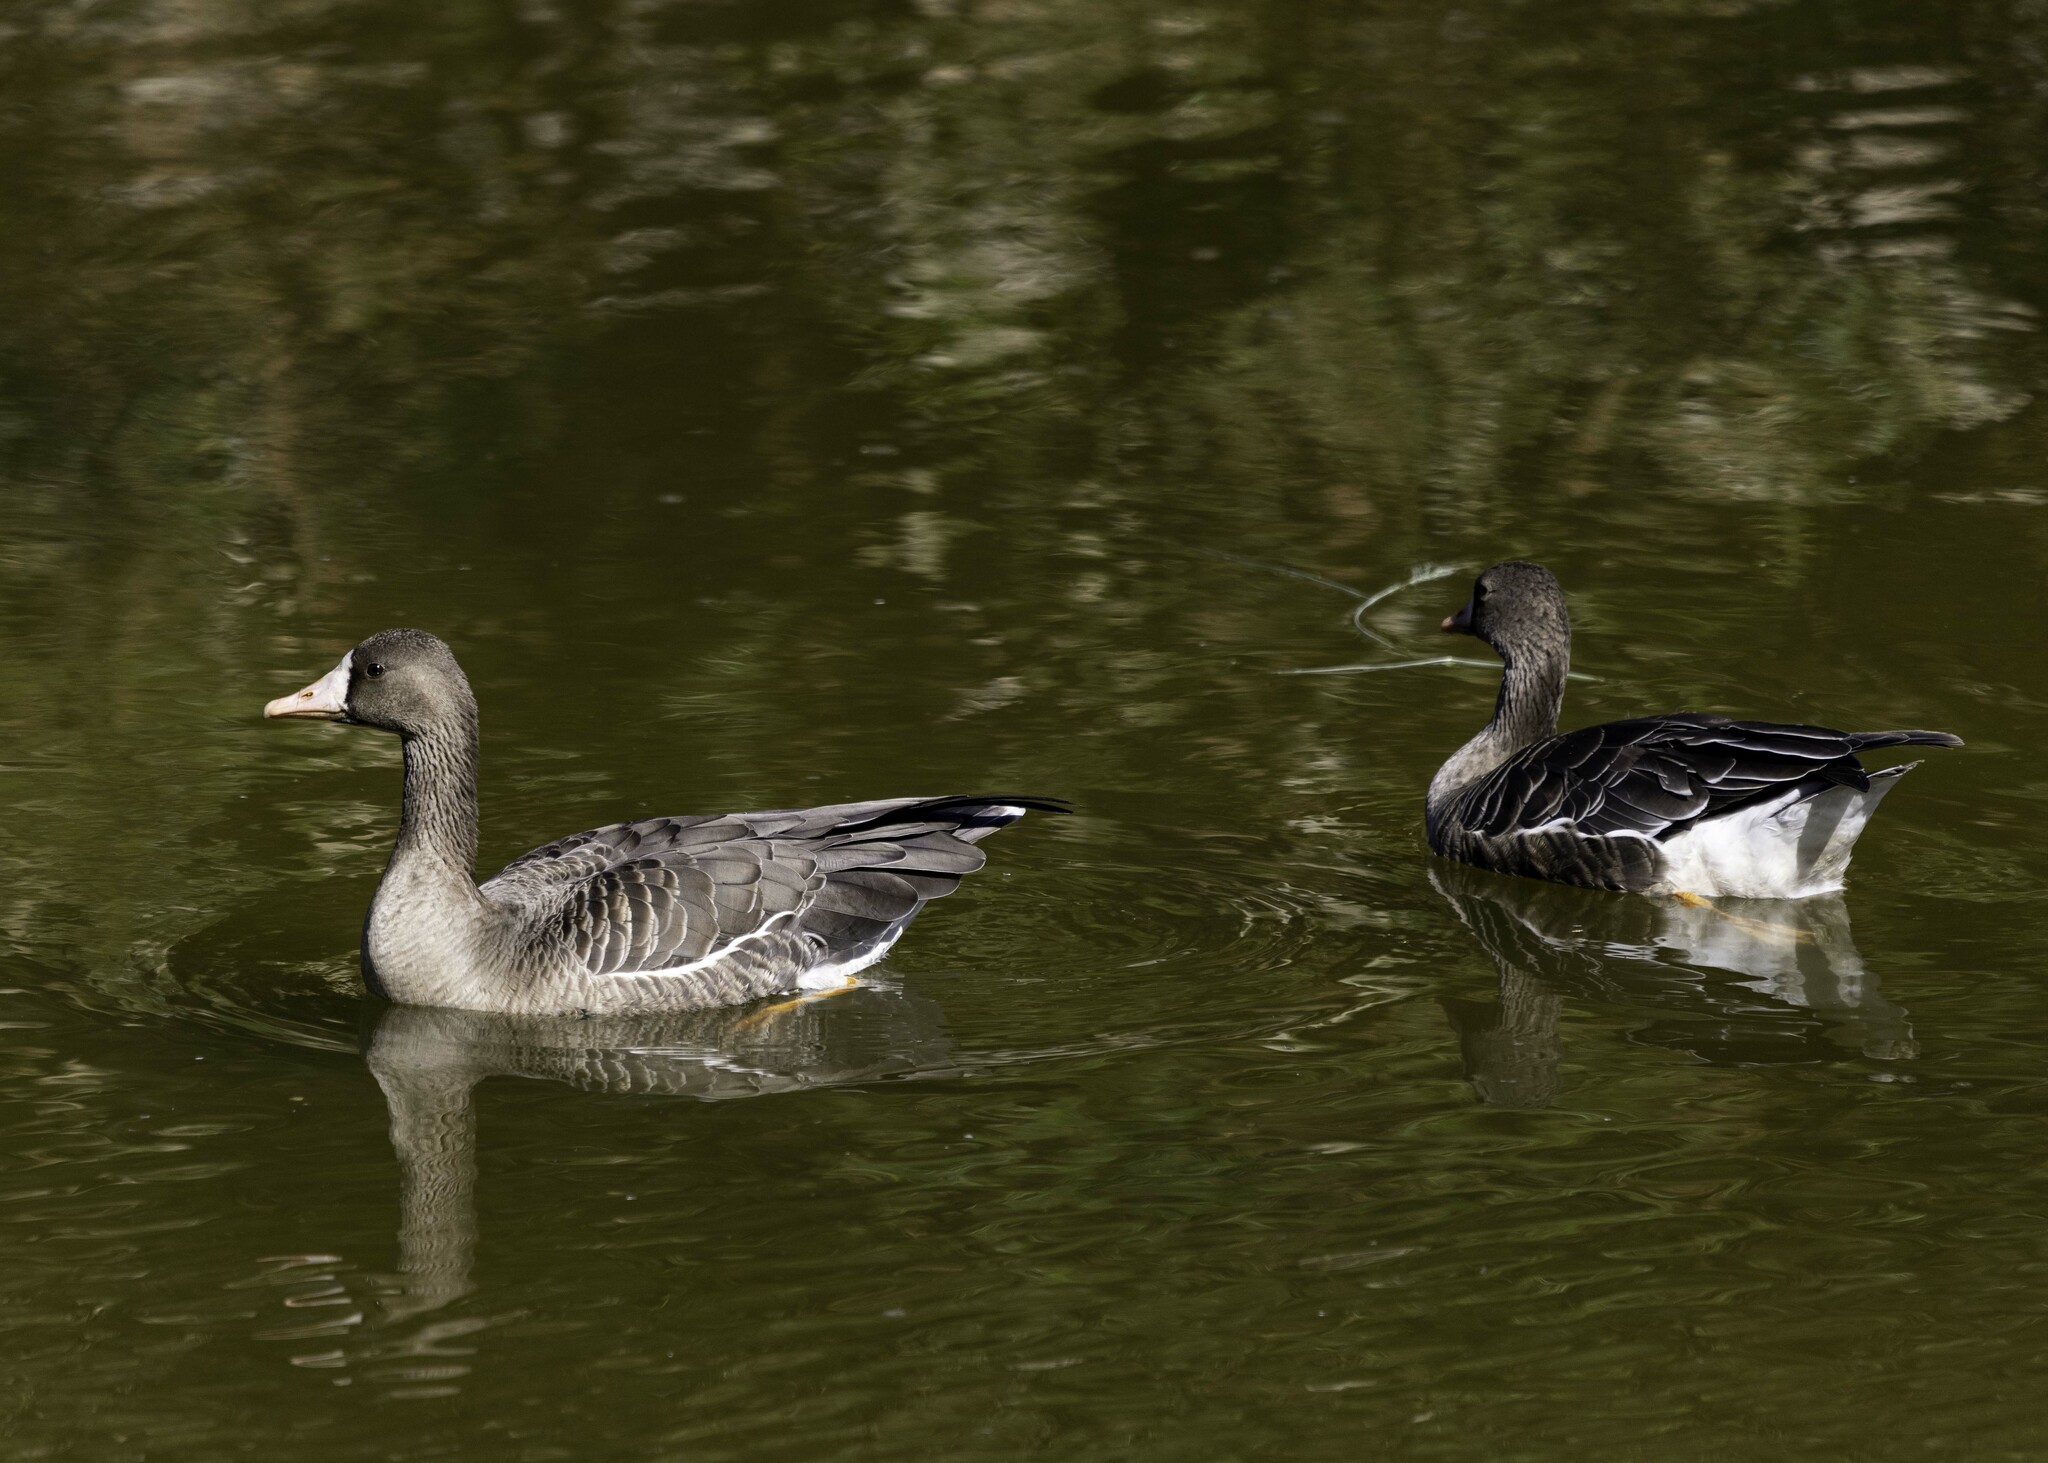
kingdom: Animalia
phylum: Chordata
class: Aves
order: Anseriformes
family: Anatidae
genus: Anser
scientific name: Anser albifrons
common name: Greater white-fronted goose
